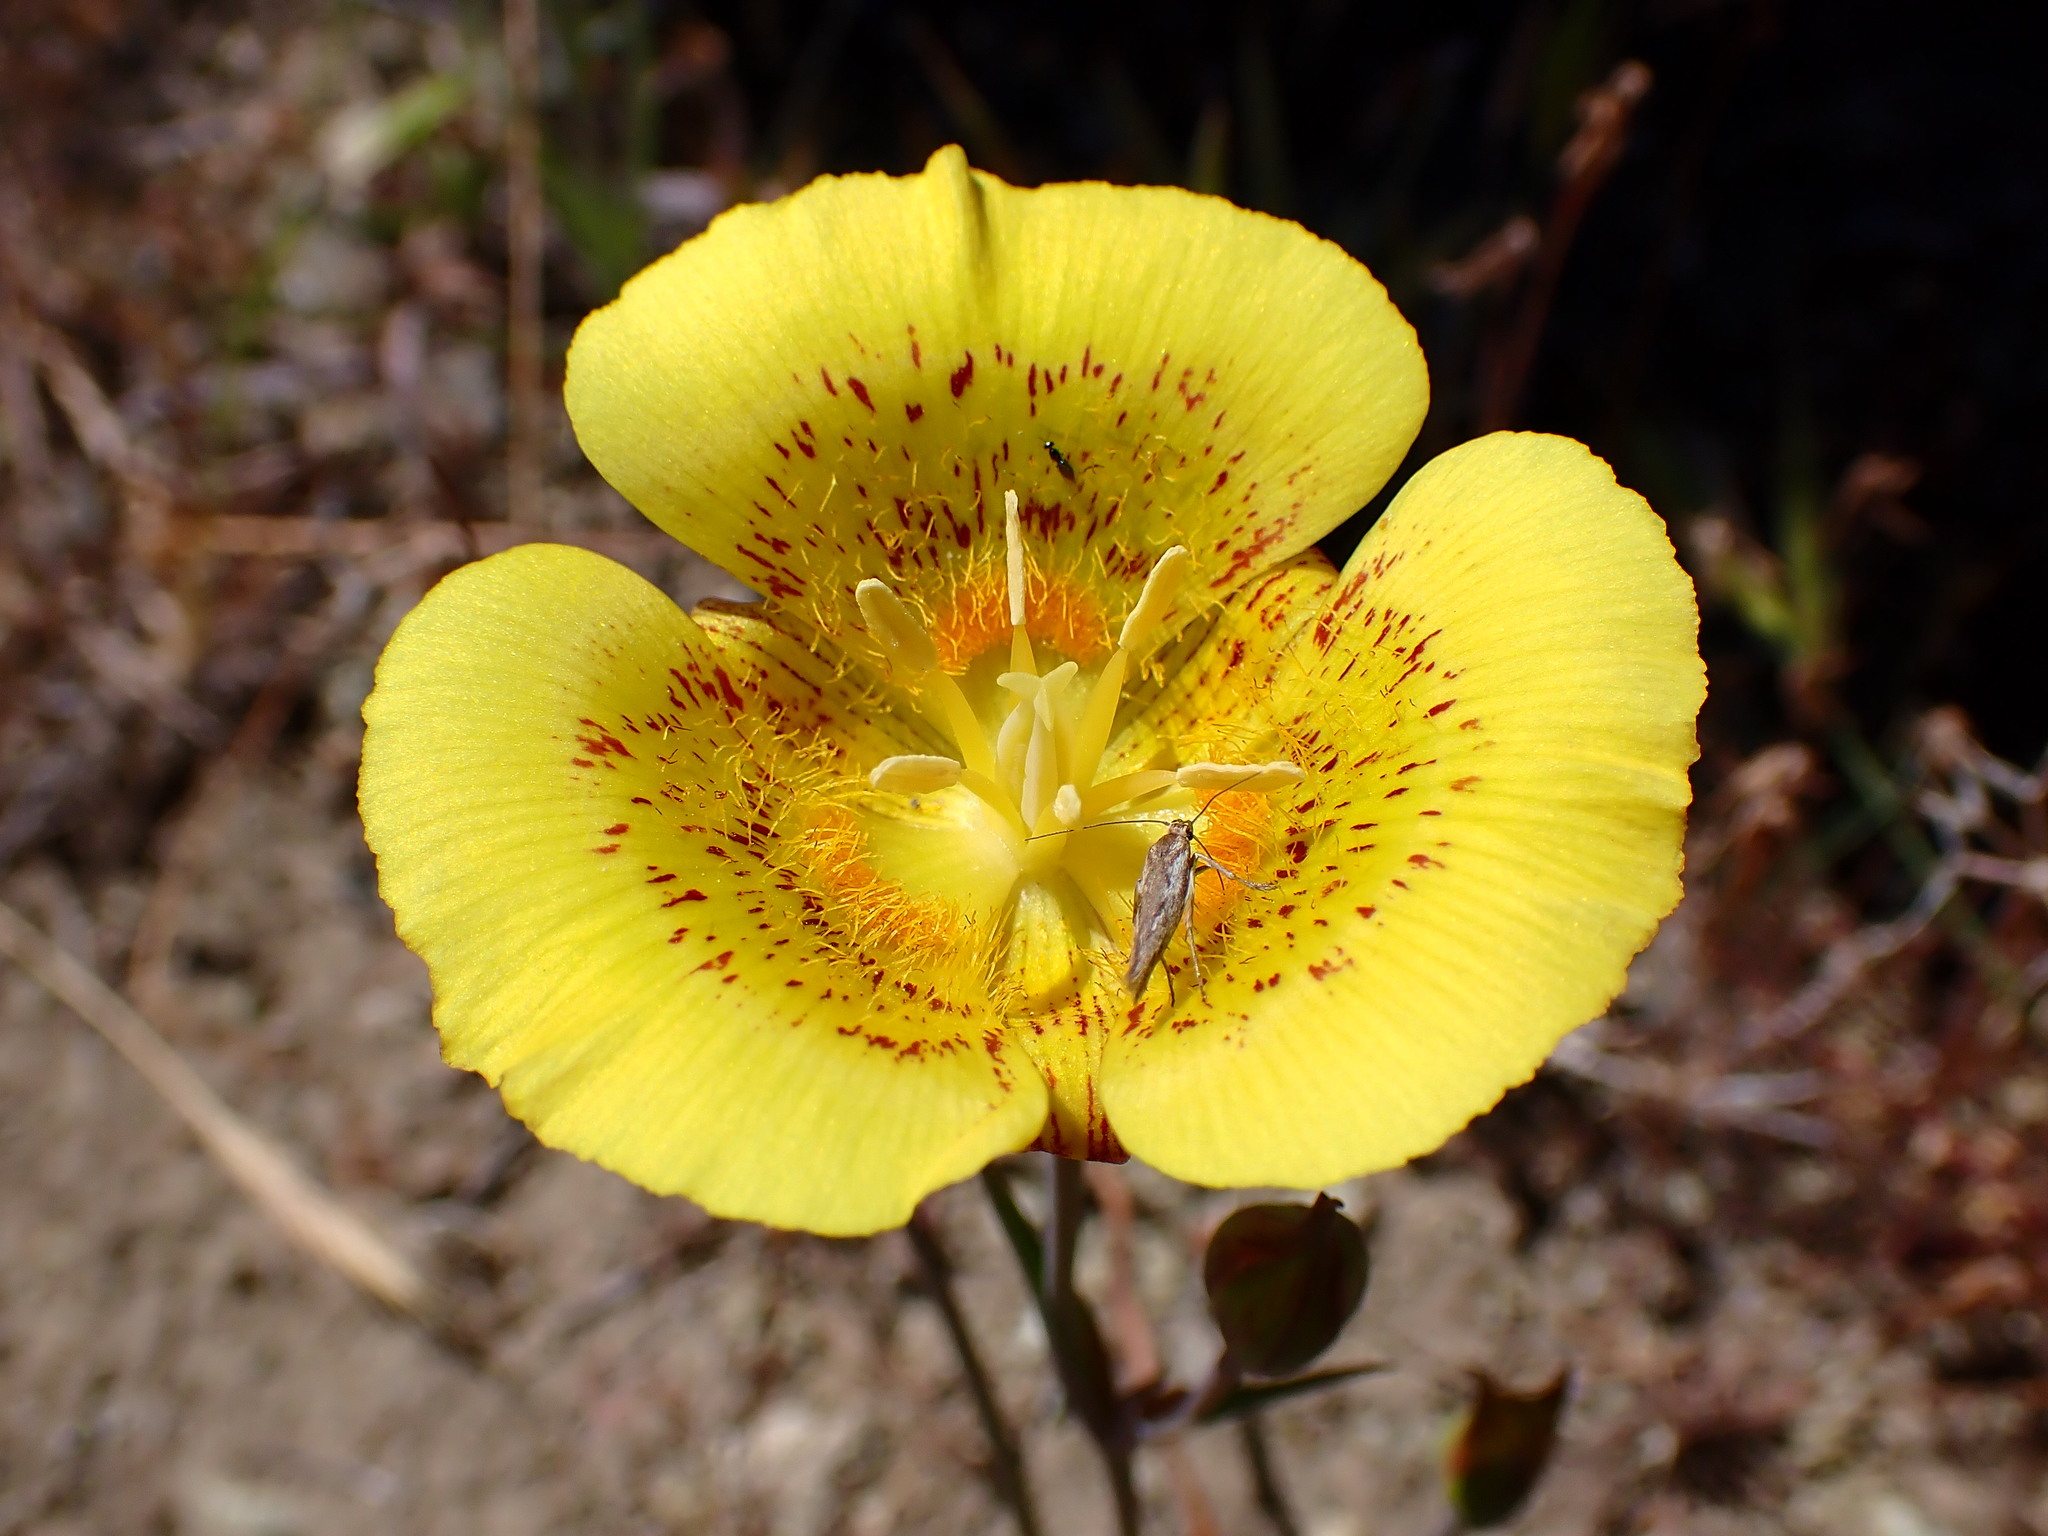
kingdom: Plantae
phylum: Tracheophyta
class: Liliopsida
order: Liliales
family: Liliaceae
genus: Calochortus
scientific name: Calochortus luteus
